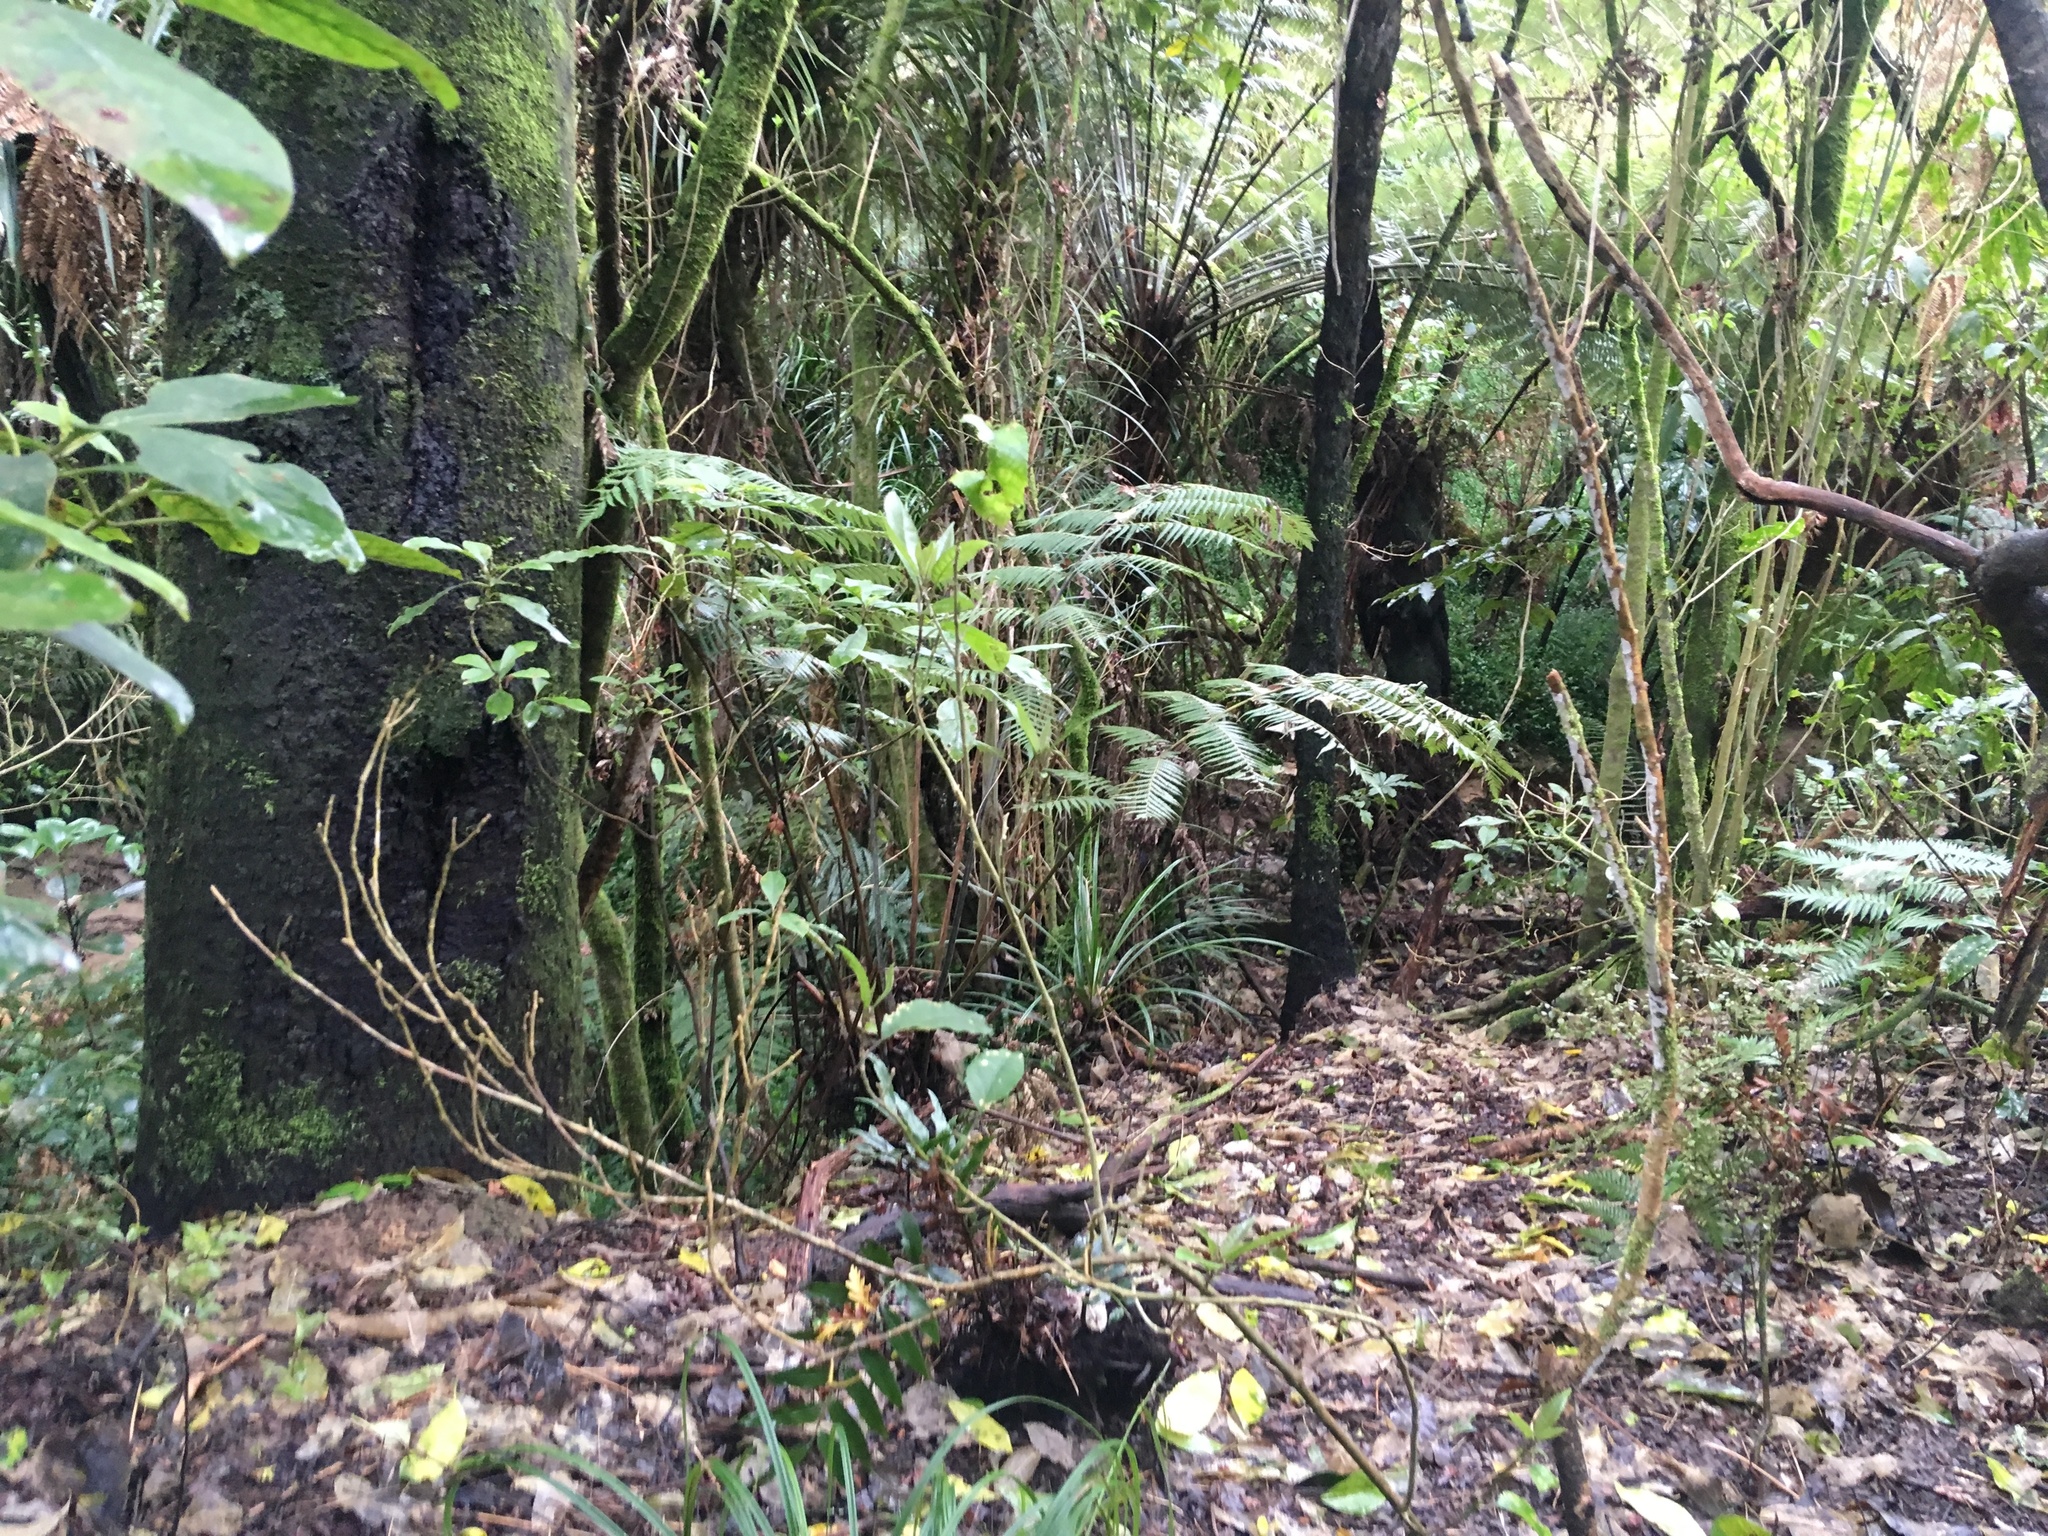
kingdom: Plantae
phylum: Tracheophyta
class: Liliopsida
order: Commelinales
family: Commelinaceae
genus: Tradescantia
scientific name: Tradescantia fluminensis
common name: Wandering-jew
